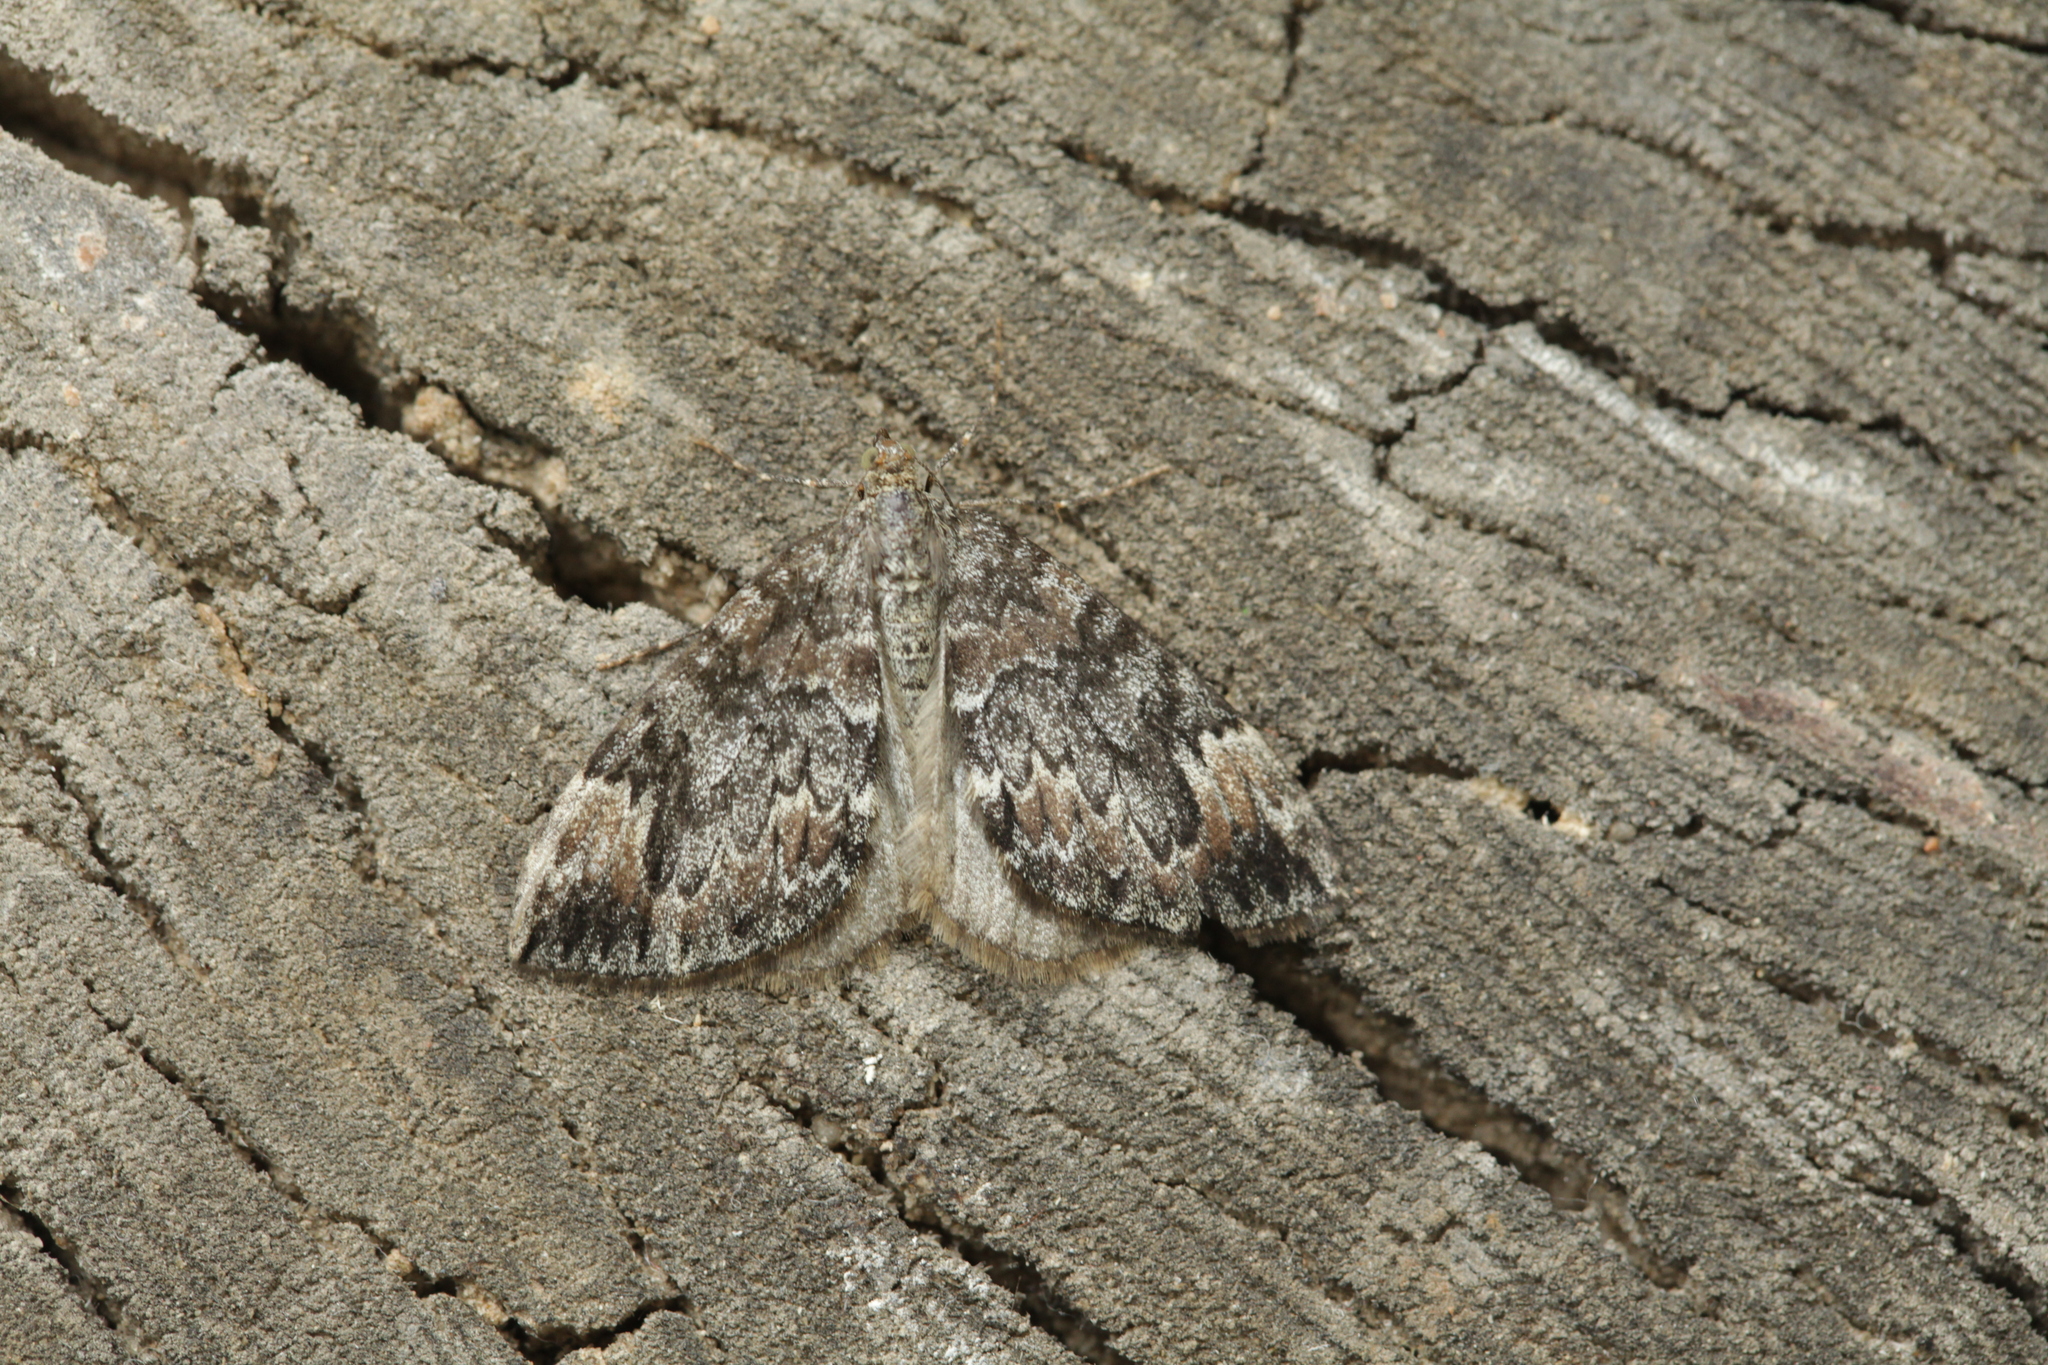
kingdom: Animalia
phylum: Arthropoda
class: Insecta
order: Lepidoptera
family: Geometridae
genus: Dysstroma
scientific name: Dysstroma citrata
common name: Dark marbled carpet
